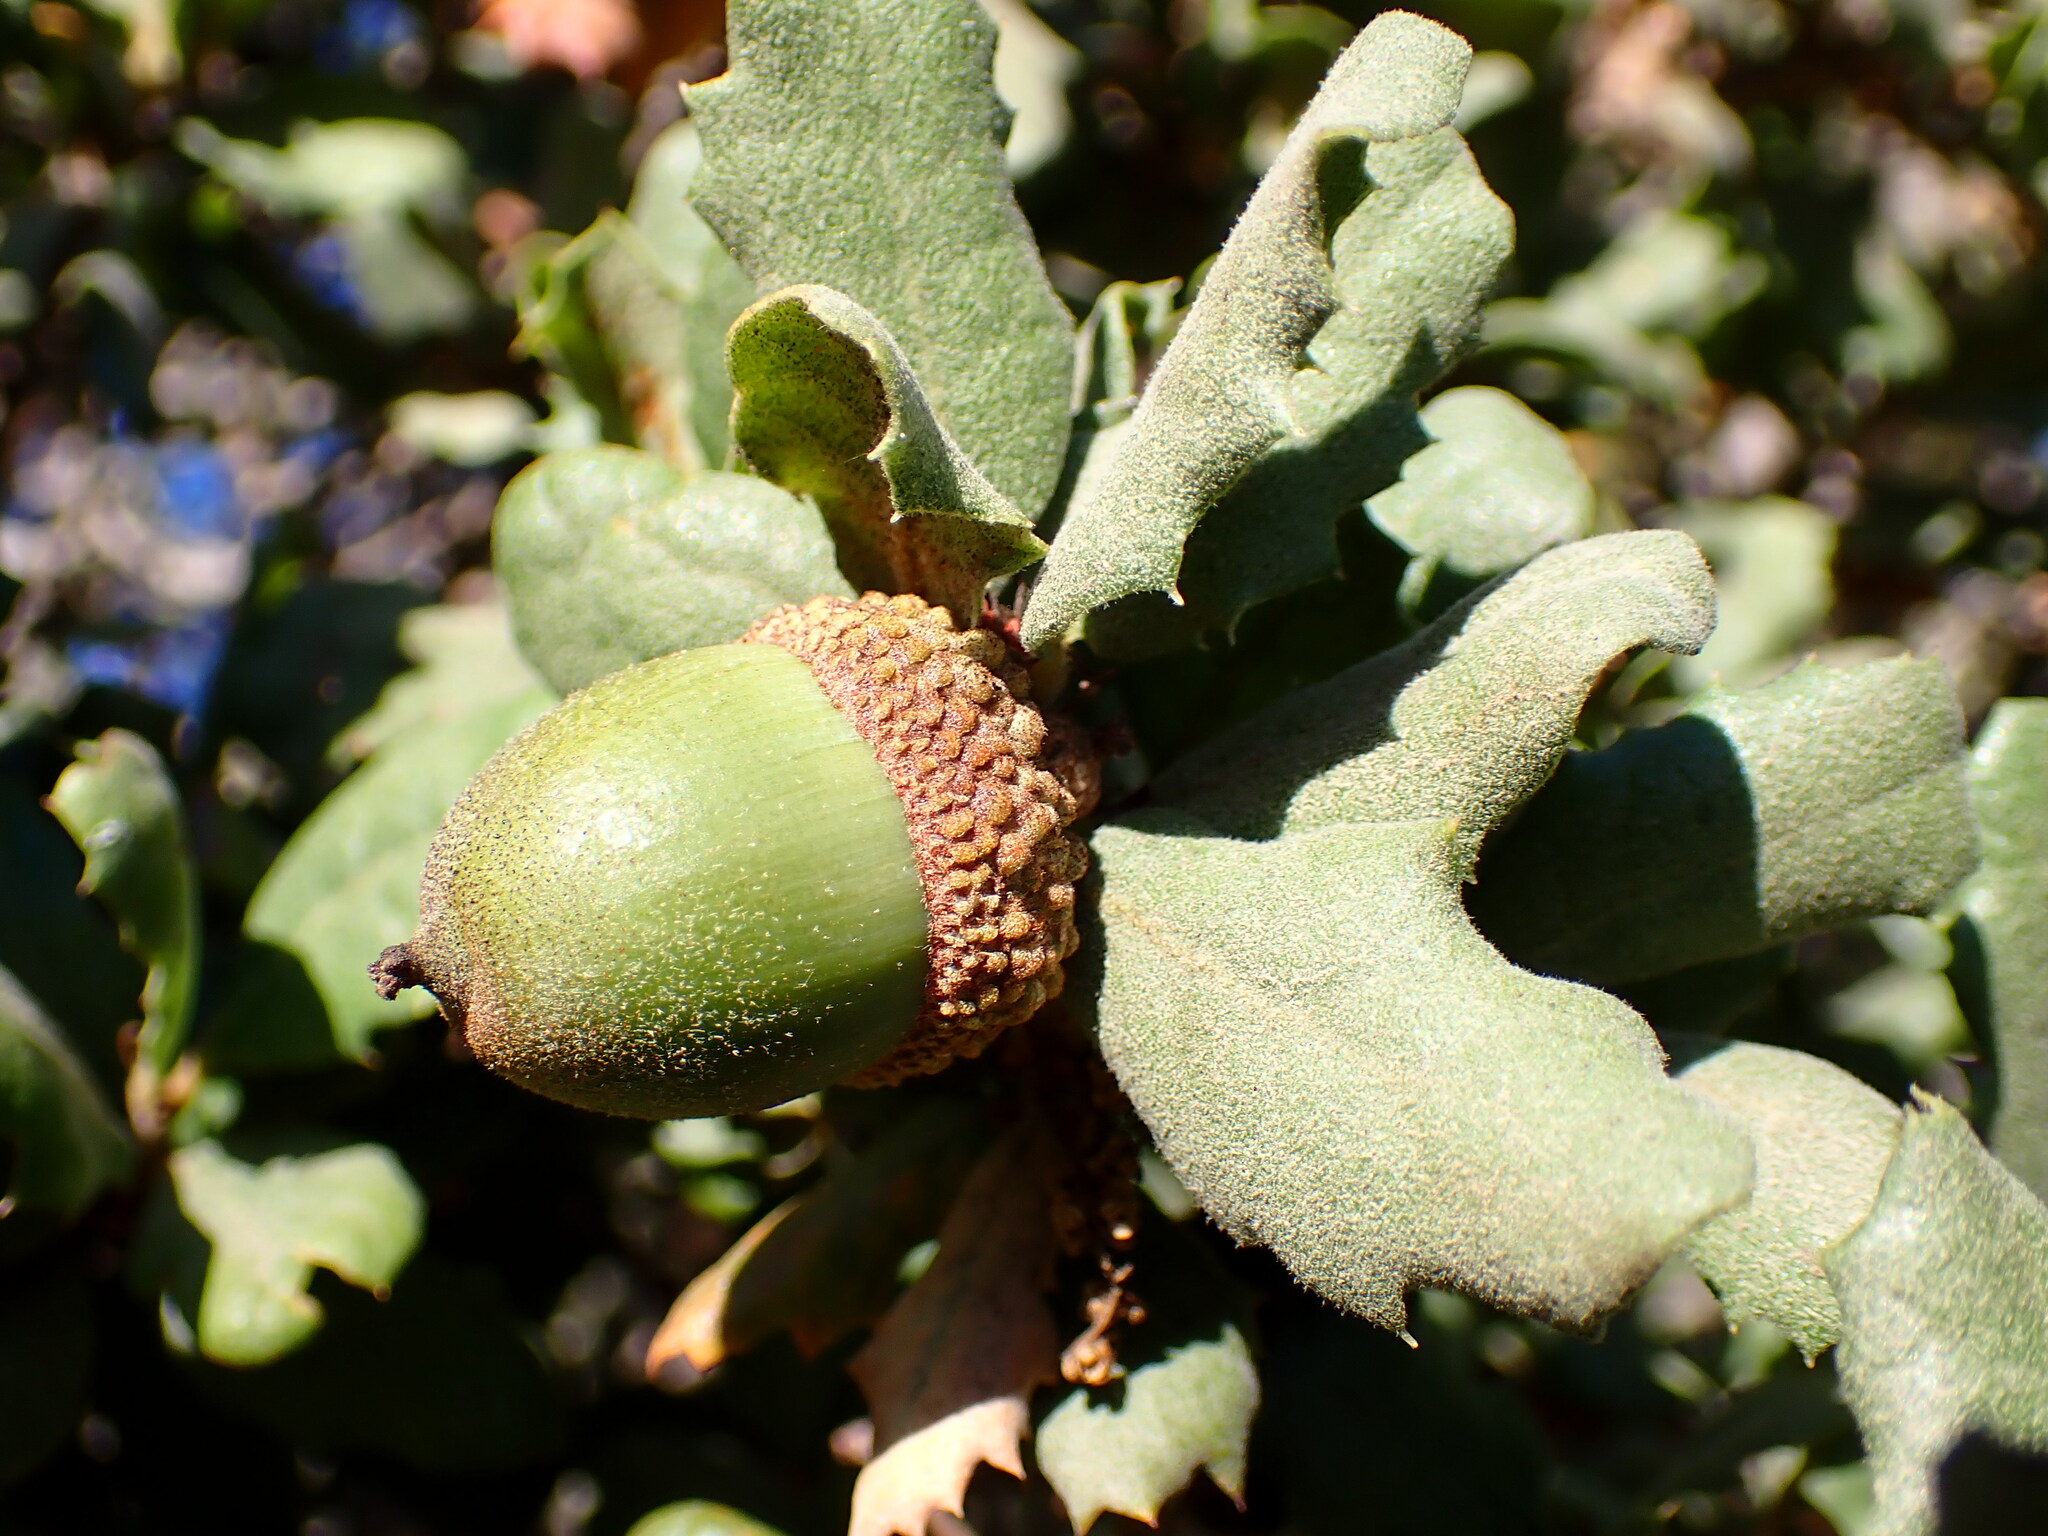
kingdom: Plantae
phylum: Tracheophyta
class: Magnoliopsida
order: Fagales
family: Fagaceae
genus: Quercus
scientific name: Quercus durata
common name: Leather oak
